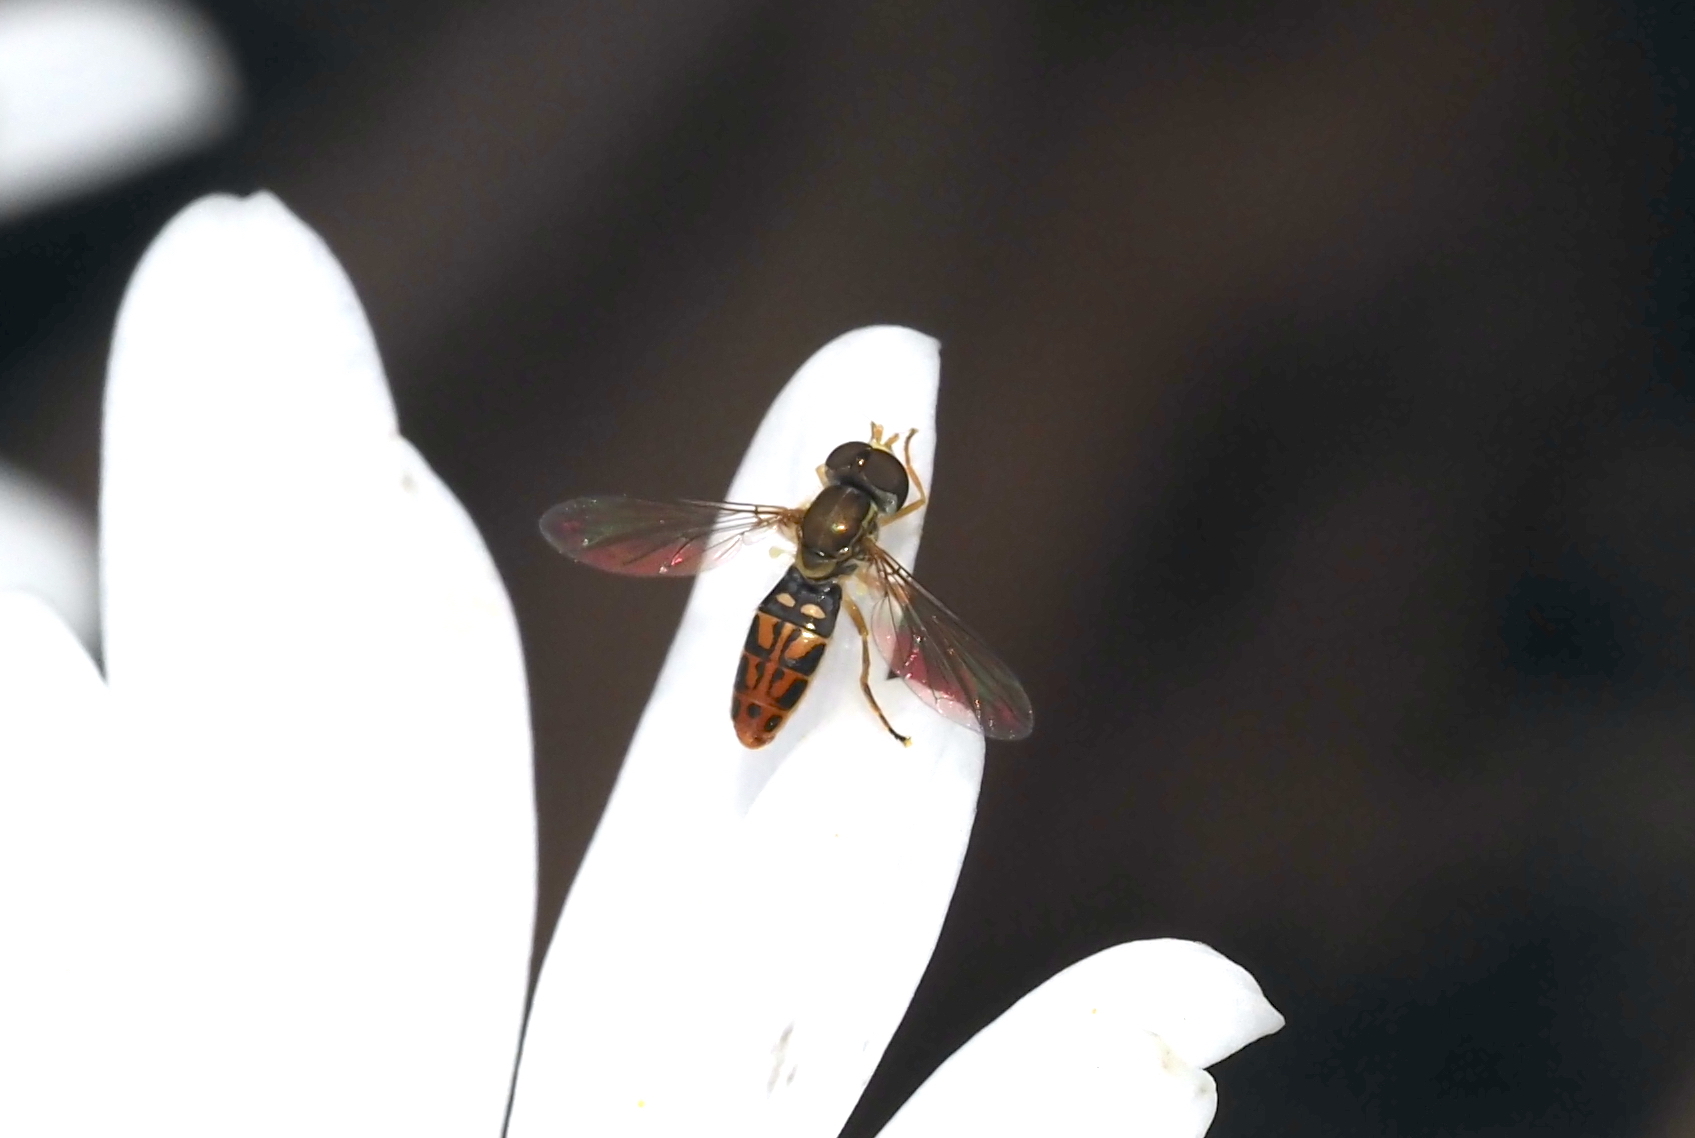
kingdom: Animalia
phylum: Arthropoda
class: Insecta
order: Diptera
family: Syrphidae
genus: Toxomerus
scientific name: Toxomerus marginatus
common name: Syrphid fly
